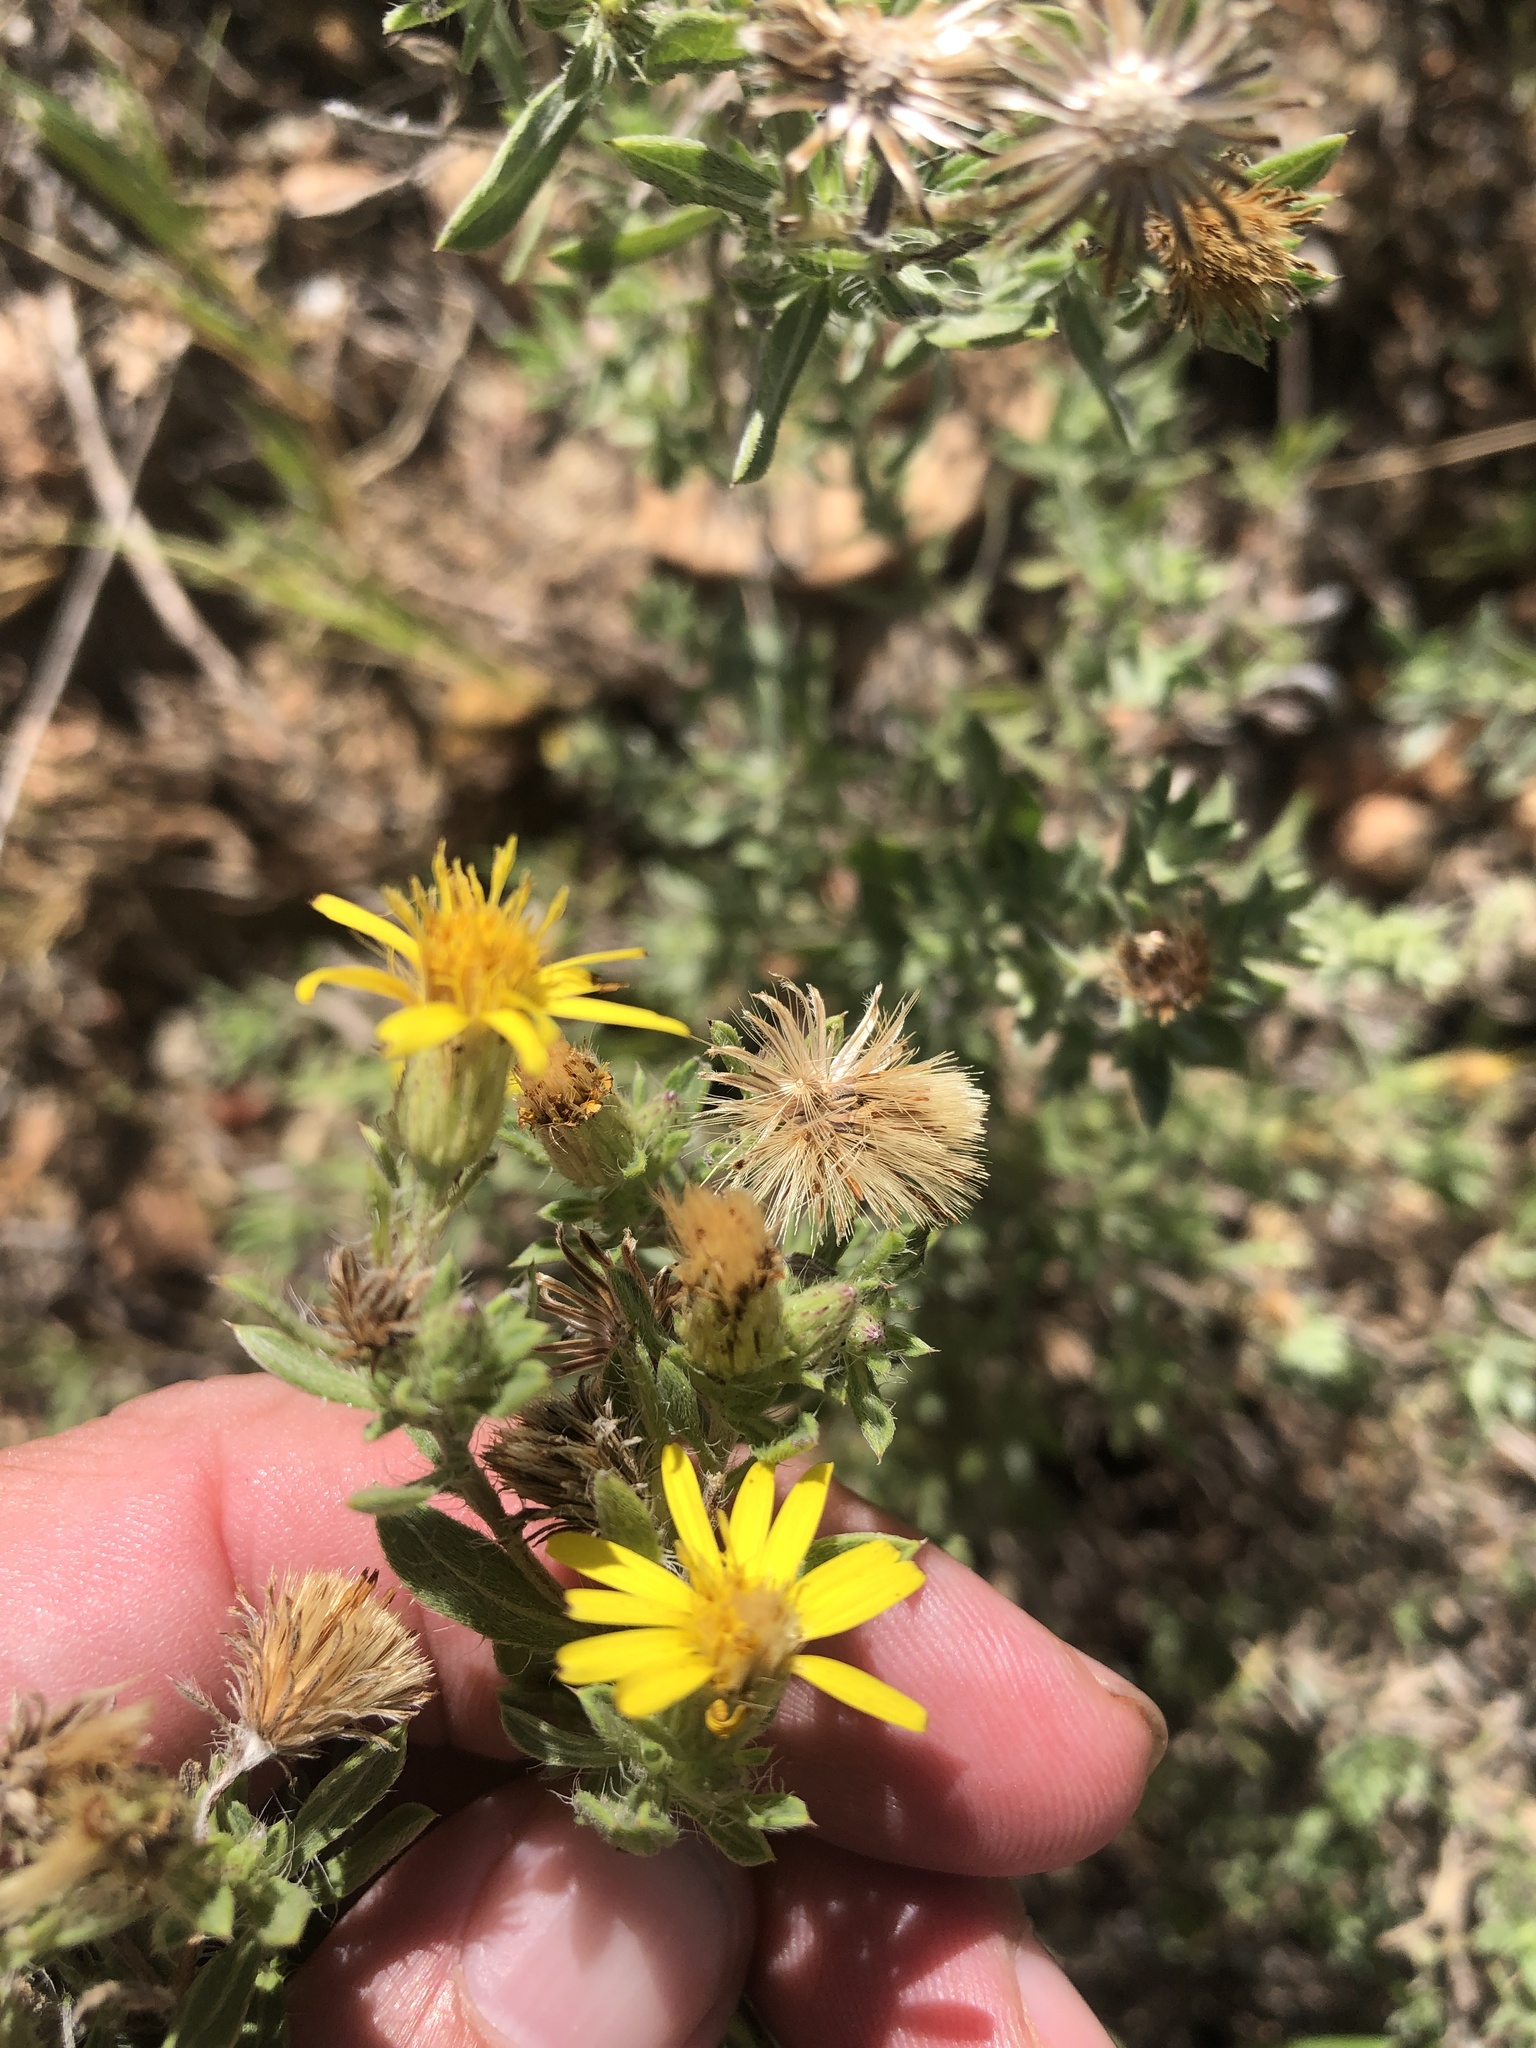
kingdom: Plantae
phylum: Tracheophyta
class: Magnoliopsida
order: Asterales
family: Asteraceae
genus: Heterotheca
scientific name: Heterotheca canescens
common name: Hoary golden-aster
